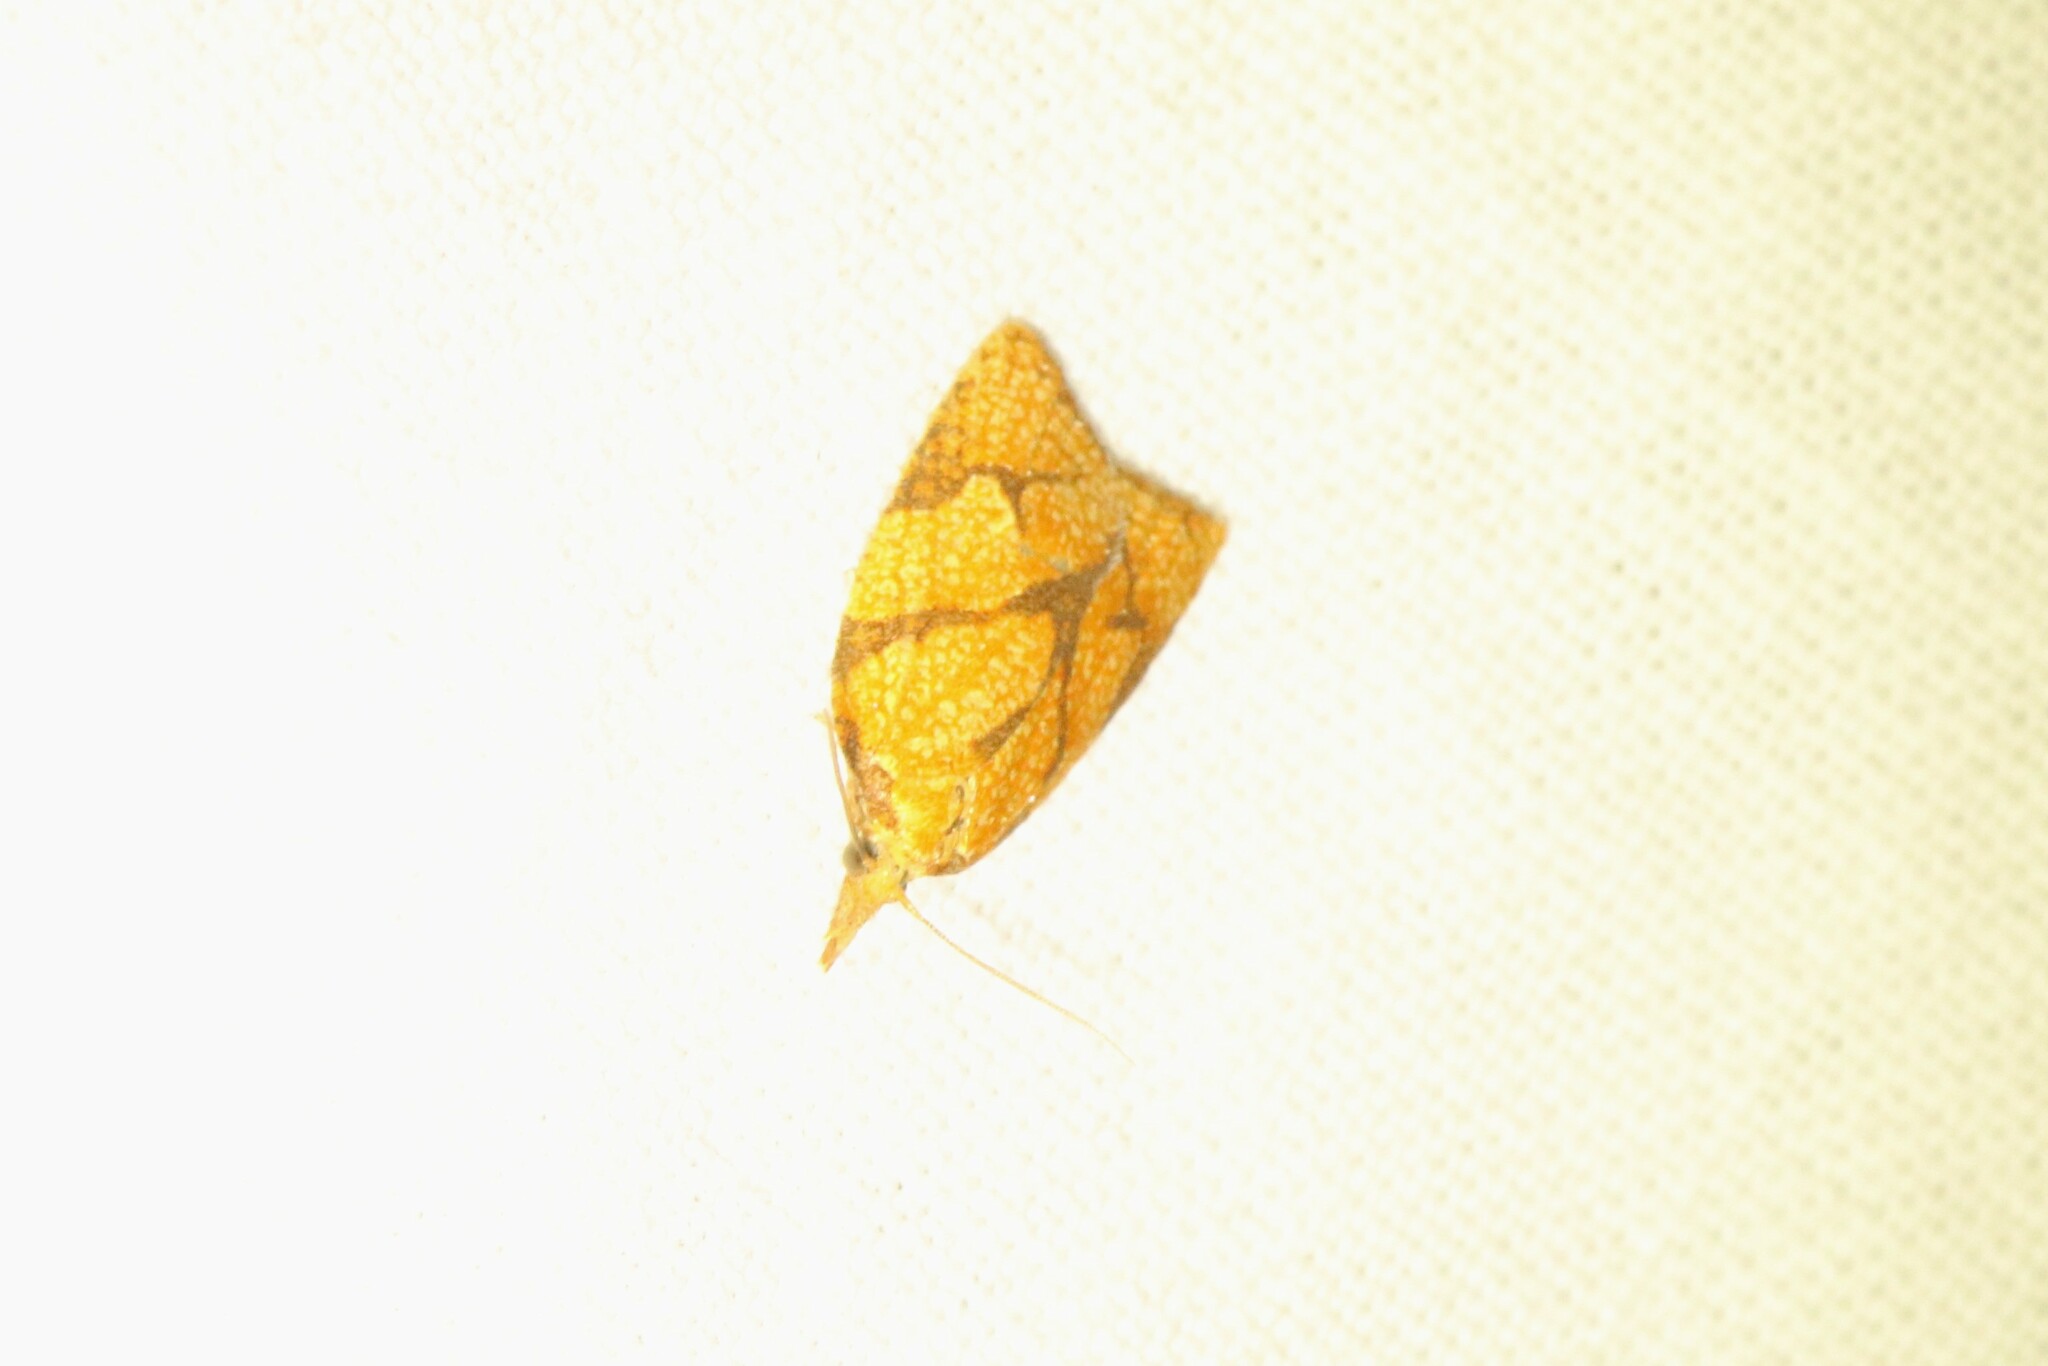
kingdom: Animalia
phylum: Arthropoda
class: Insecta
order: Lepidoptera
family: Tortricidae
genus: Cenopis
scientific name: Cenopis reticulatana
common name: Reticulated fruitworm moth
